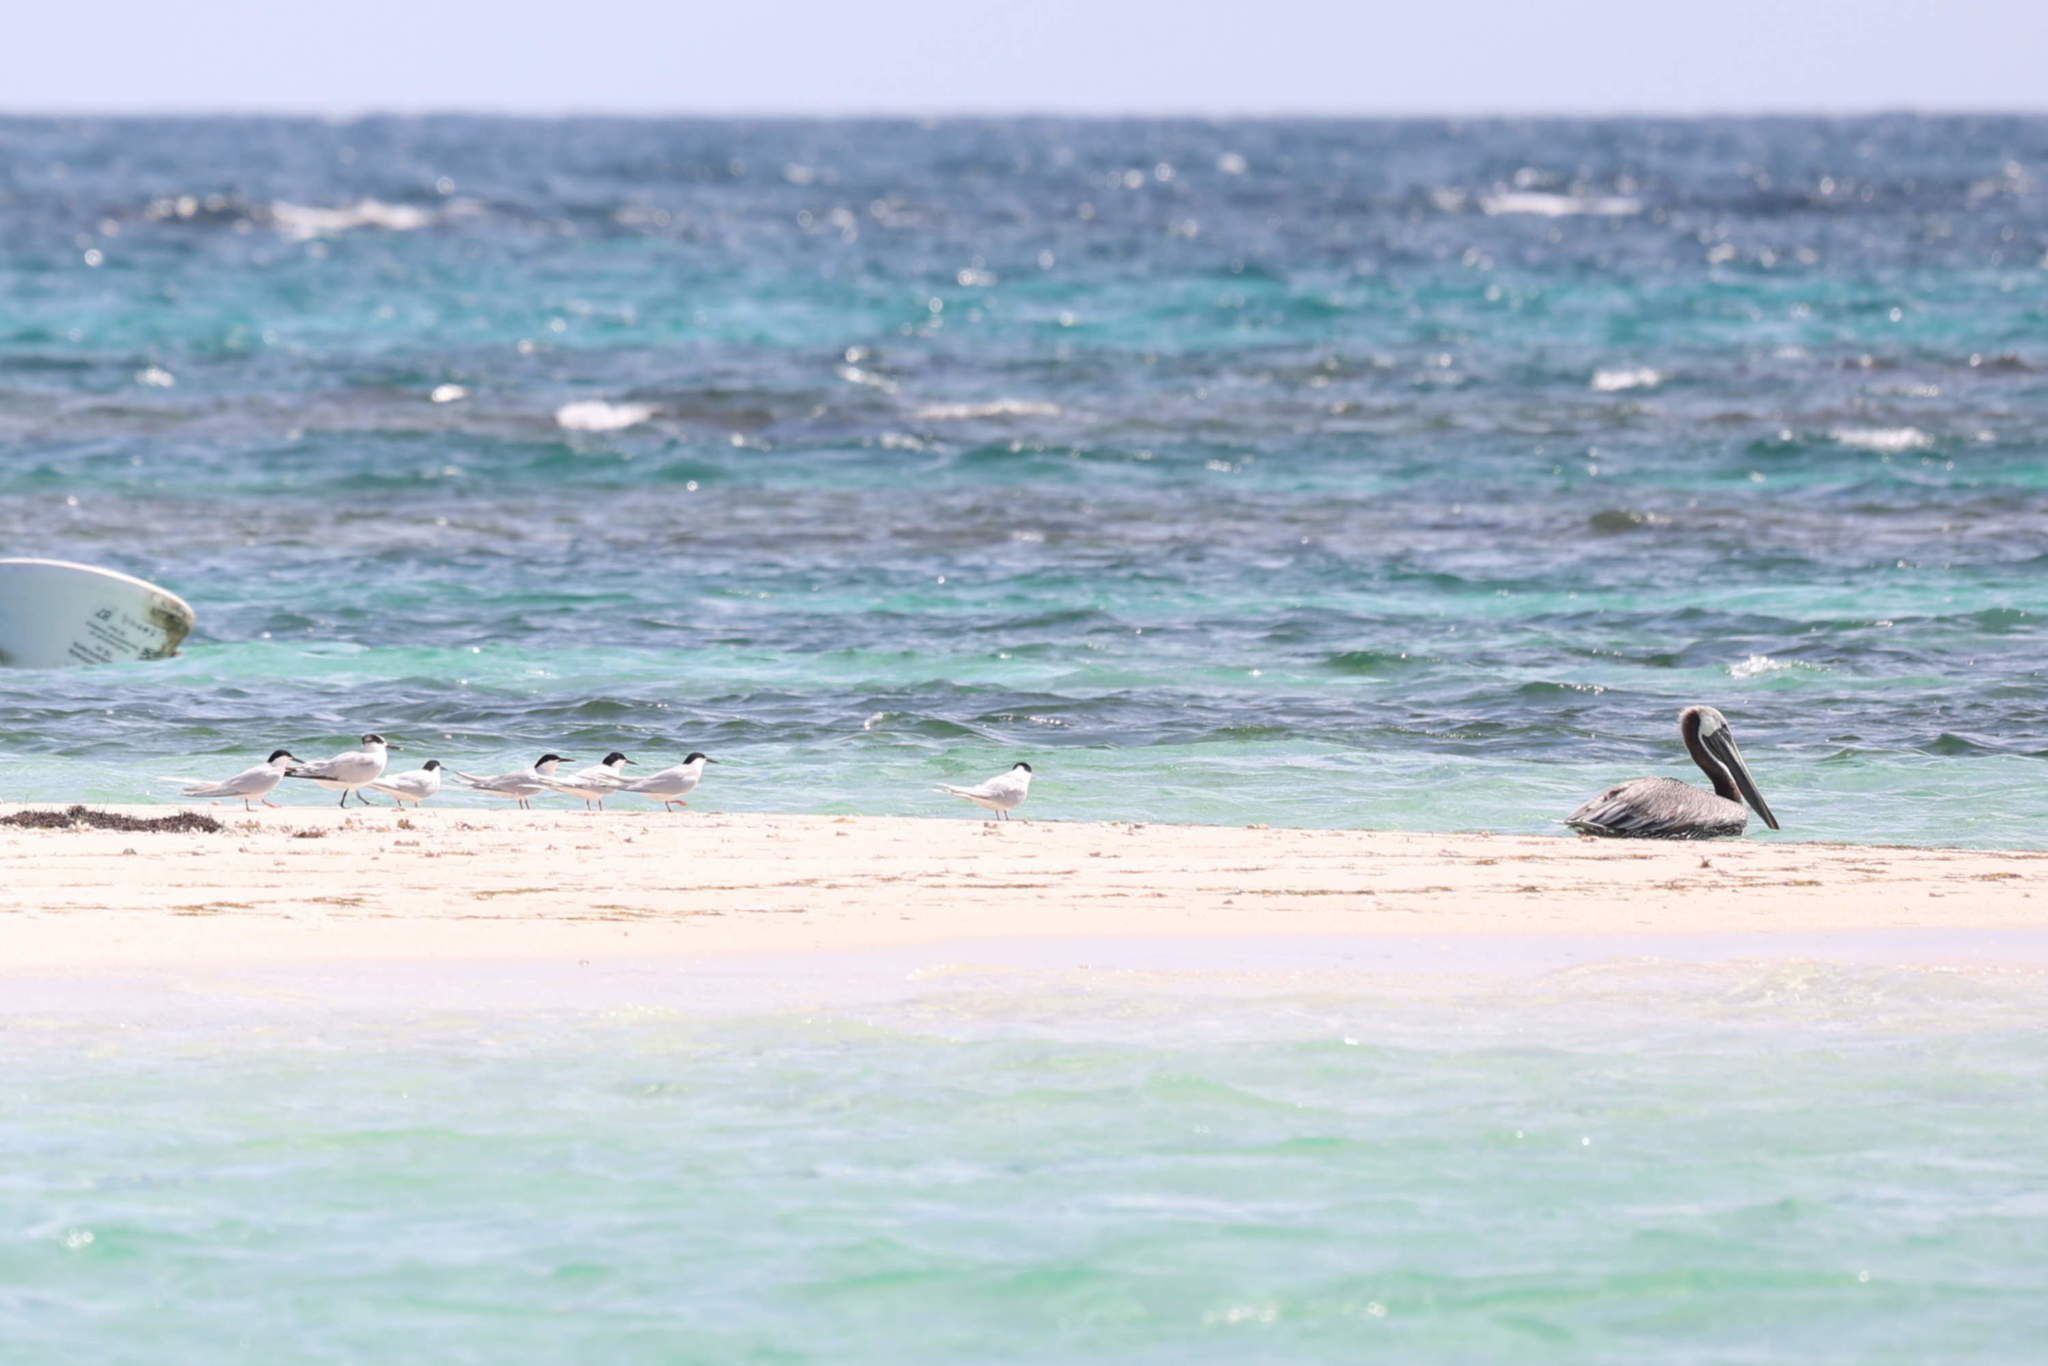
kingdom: Animalia
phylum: Chordata
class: Aves
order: Charadriiformes
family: Laridae
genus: Thalasseus
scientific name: Thalasseus sandvicensis
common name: Sandwich tern
